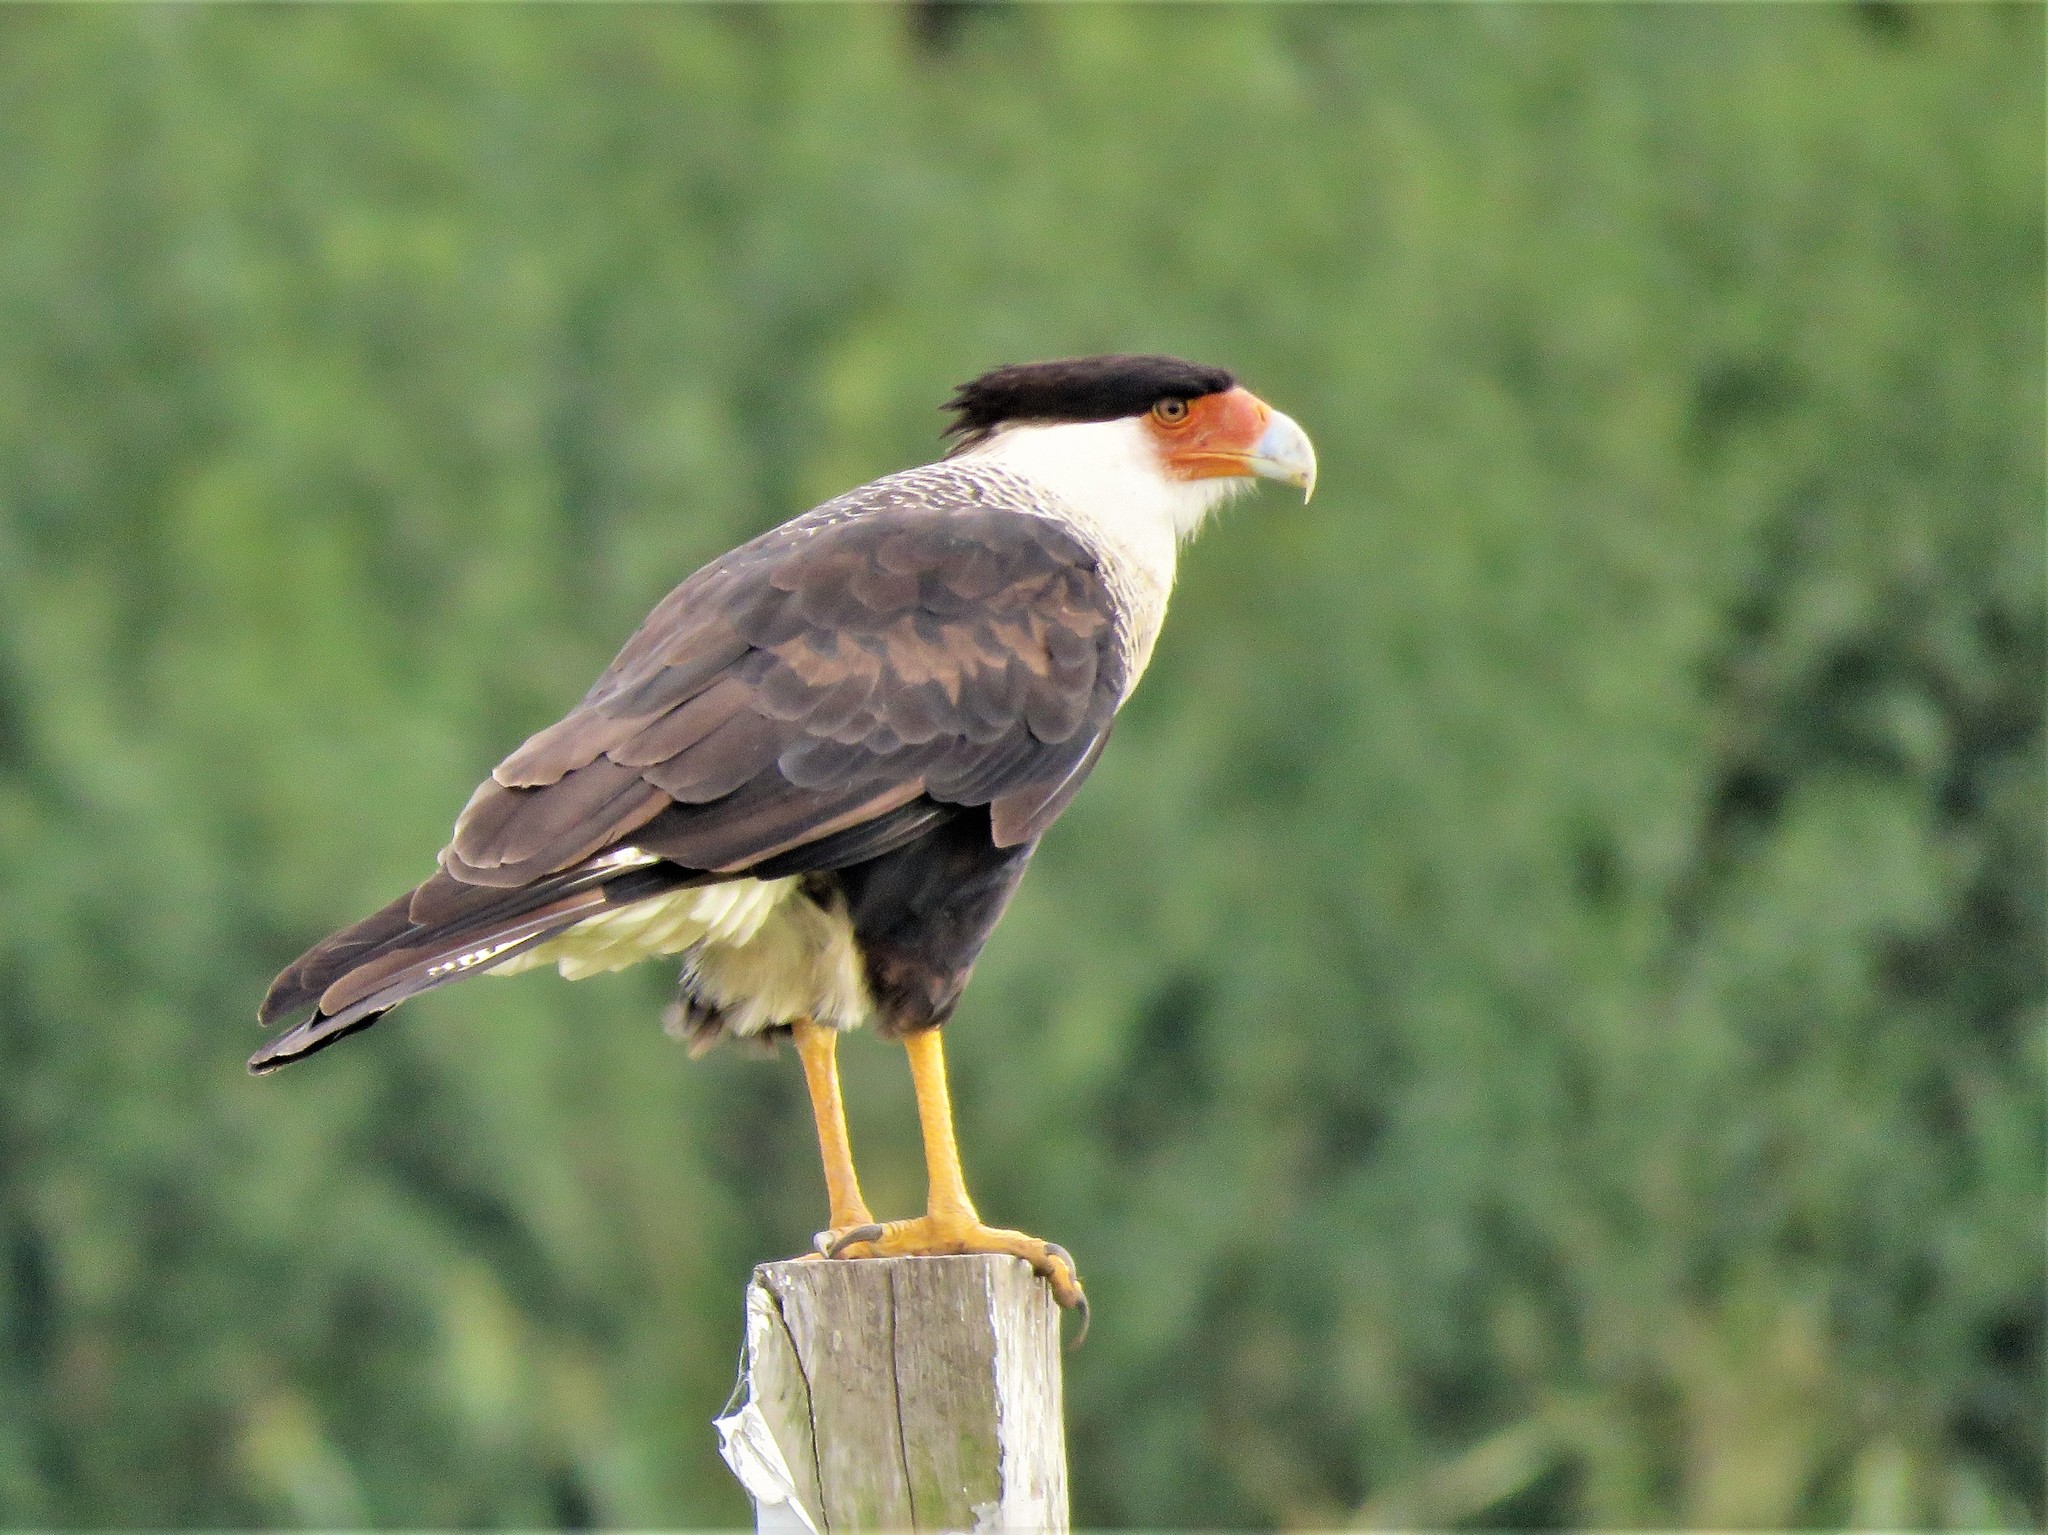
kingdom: Animalia
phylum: Chordata
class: Aves
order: Falconiformes
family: Falconidae
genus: Caracara
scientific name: Caracara plancus
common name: Southern caracara
